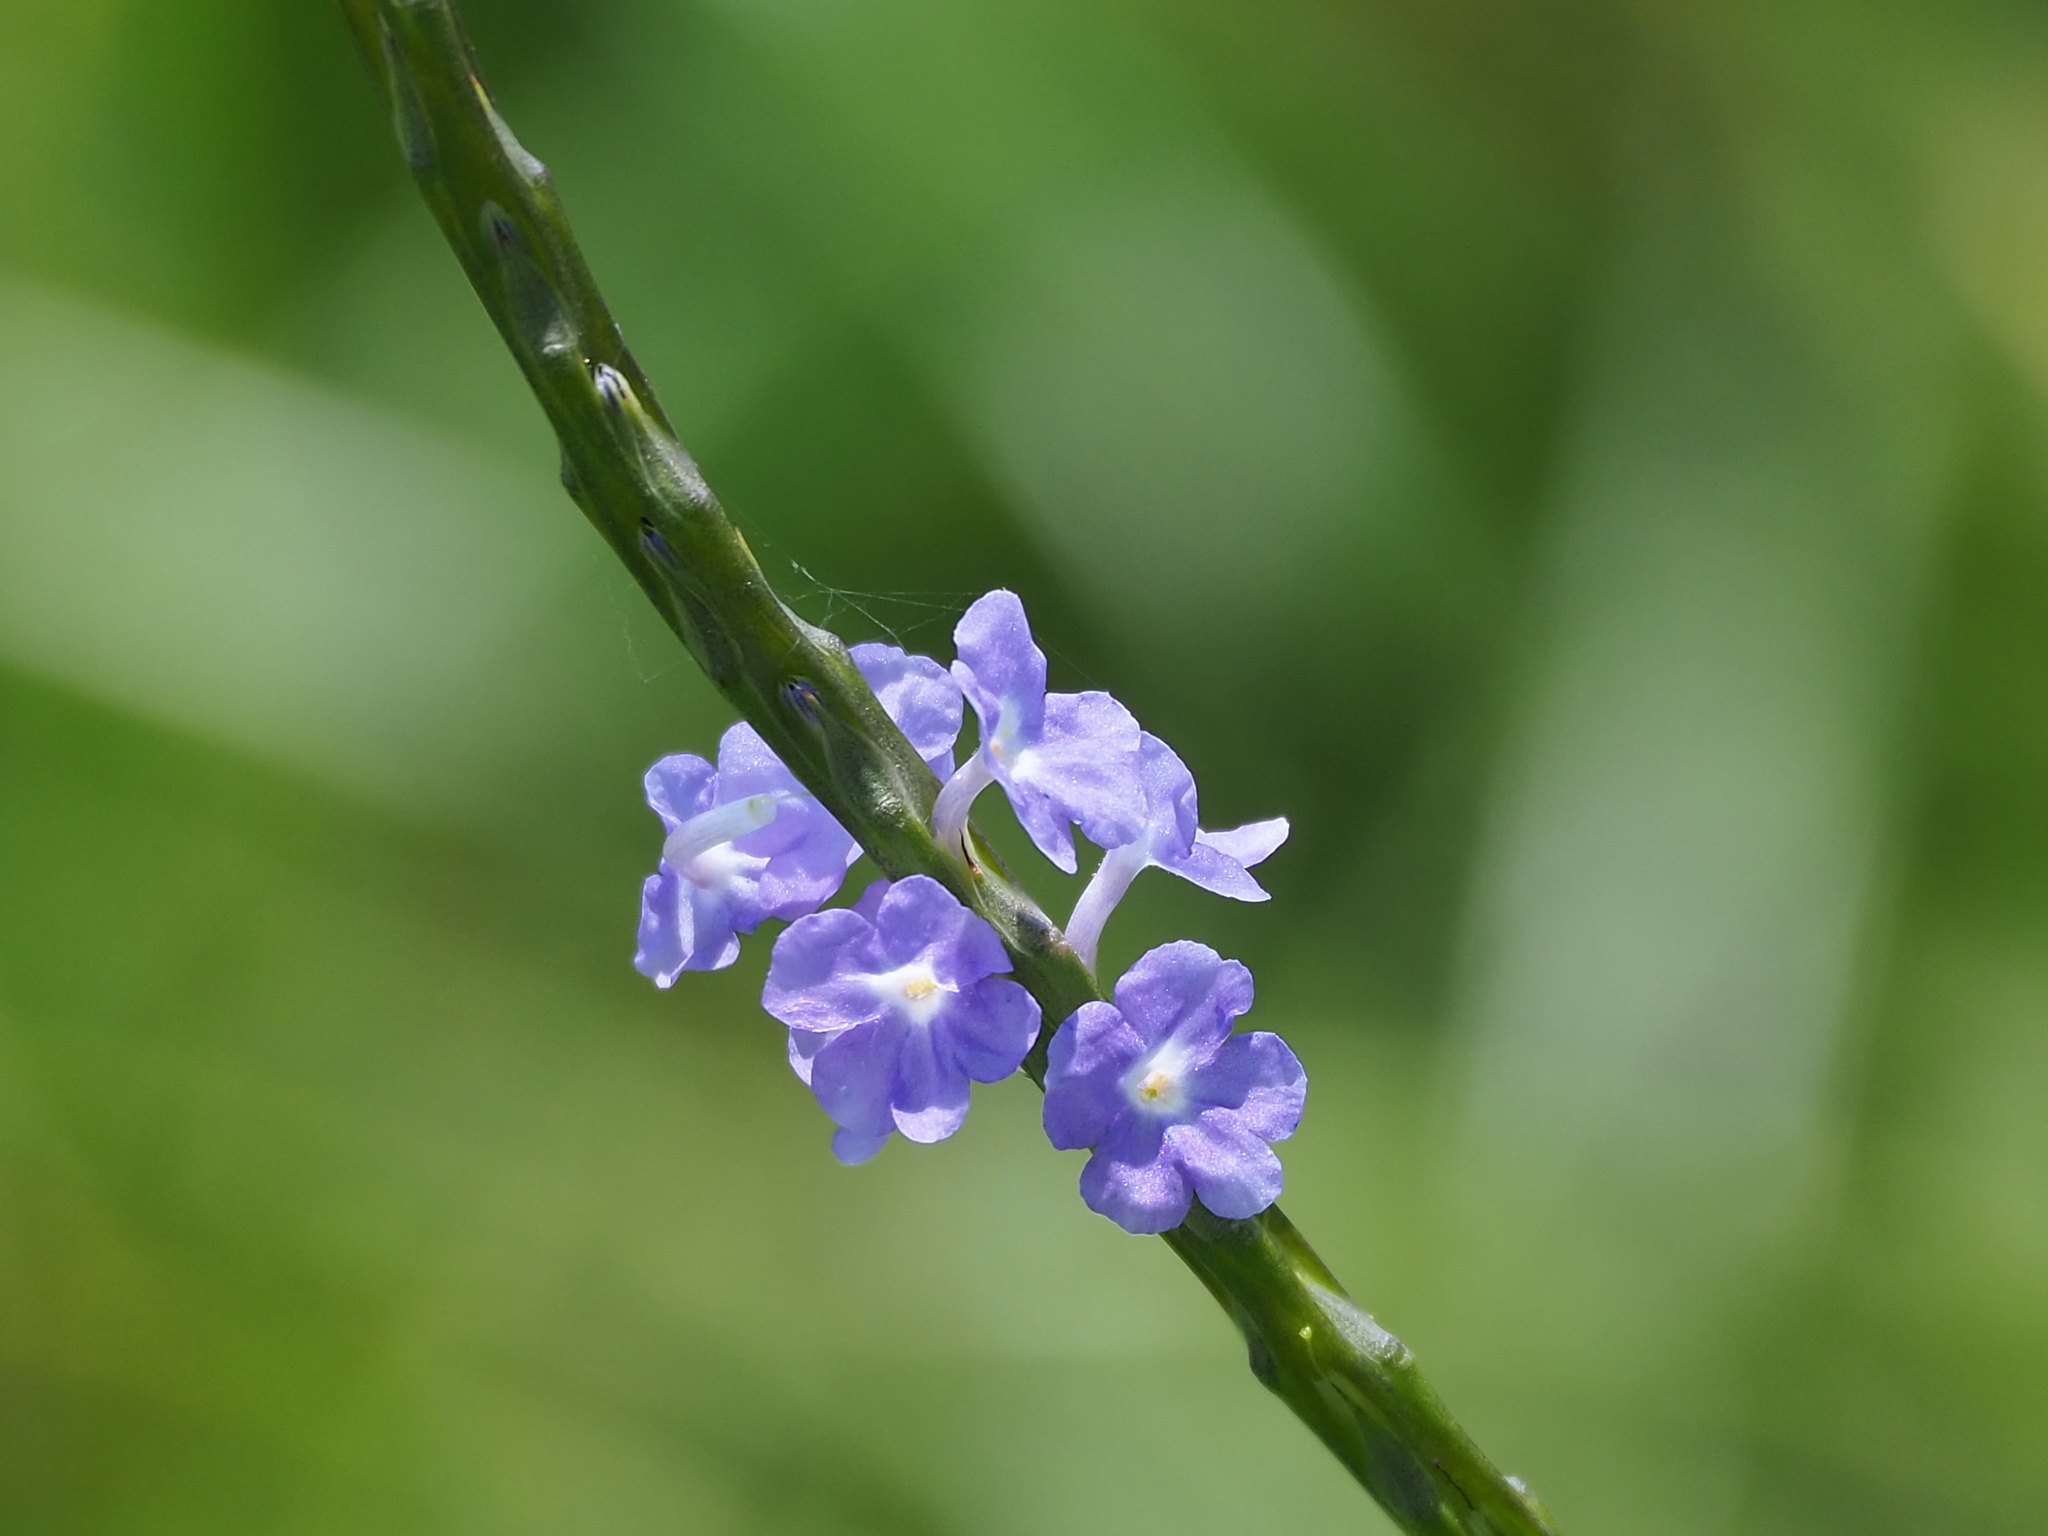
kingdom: Plantae
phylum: Tracheophyta
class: Magnoliopsida
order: Lamiales
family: Verbenaceae
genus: Stachytarpheta
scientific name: Stachytarpheta jamaicensis
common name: Light-blue snakeweed
